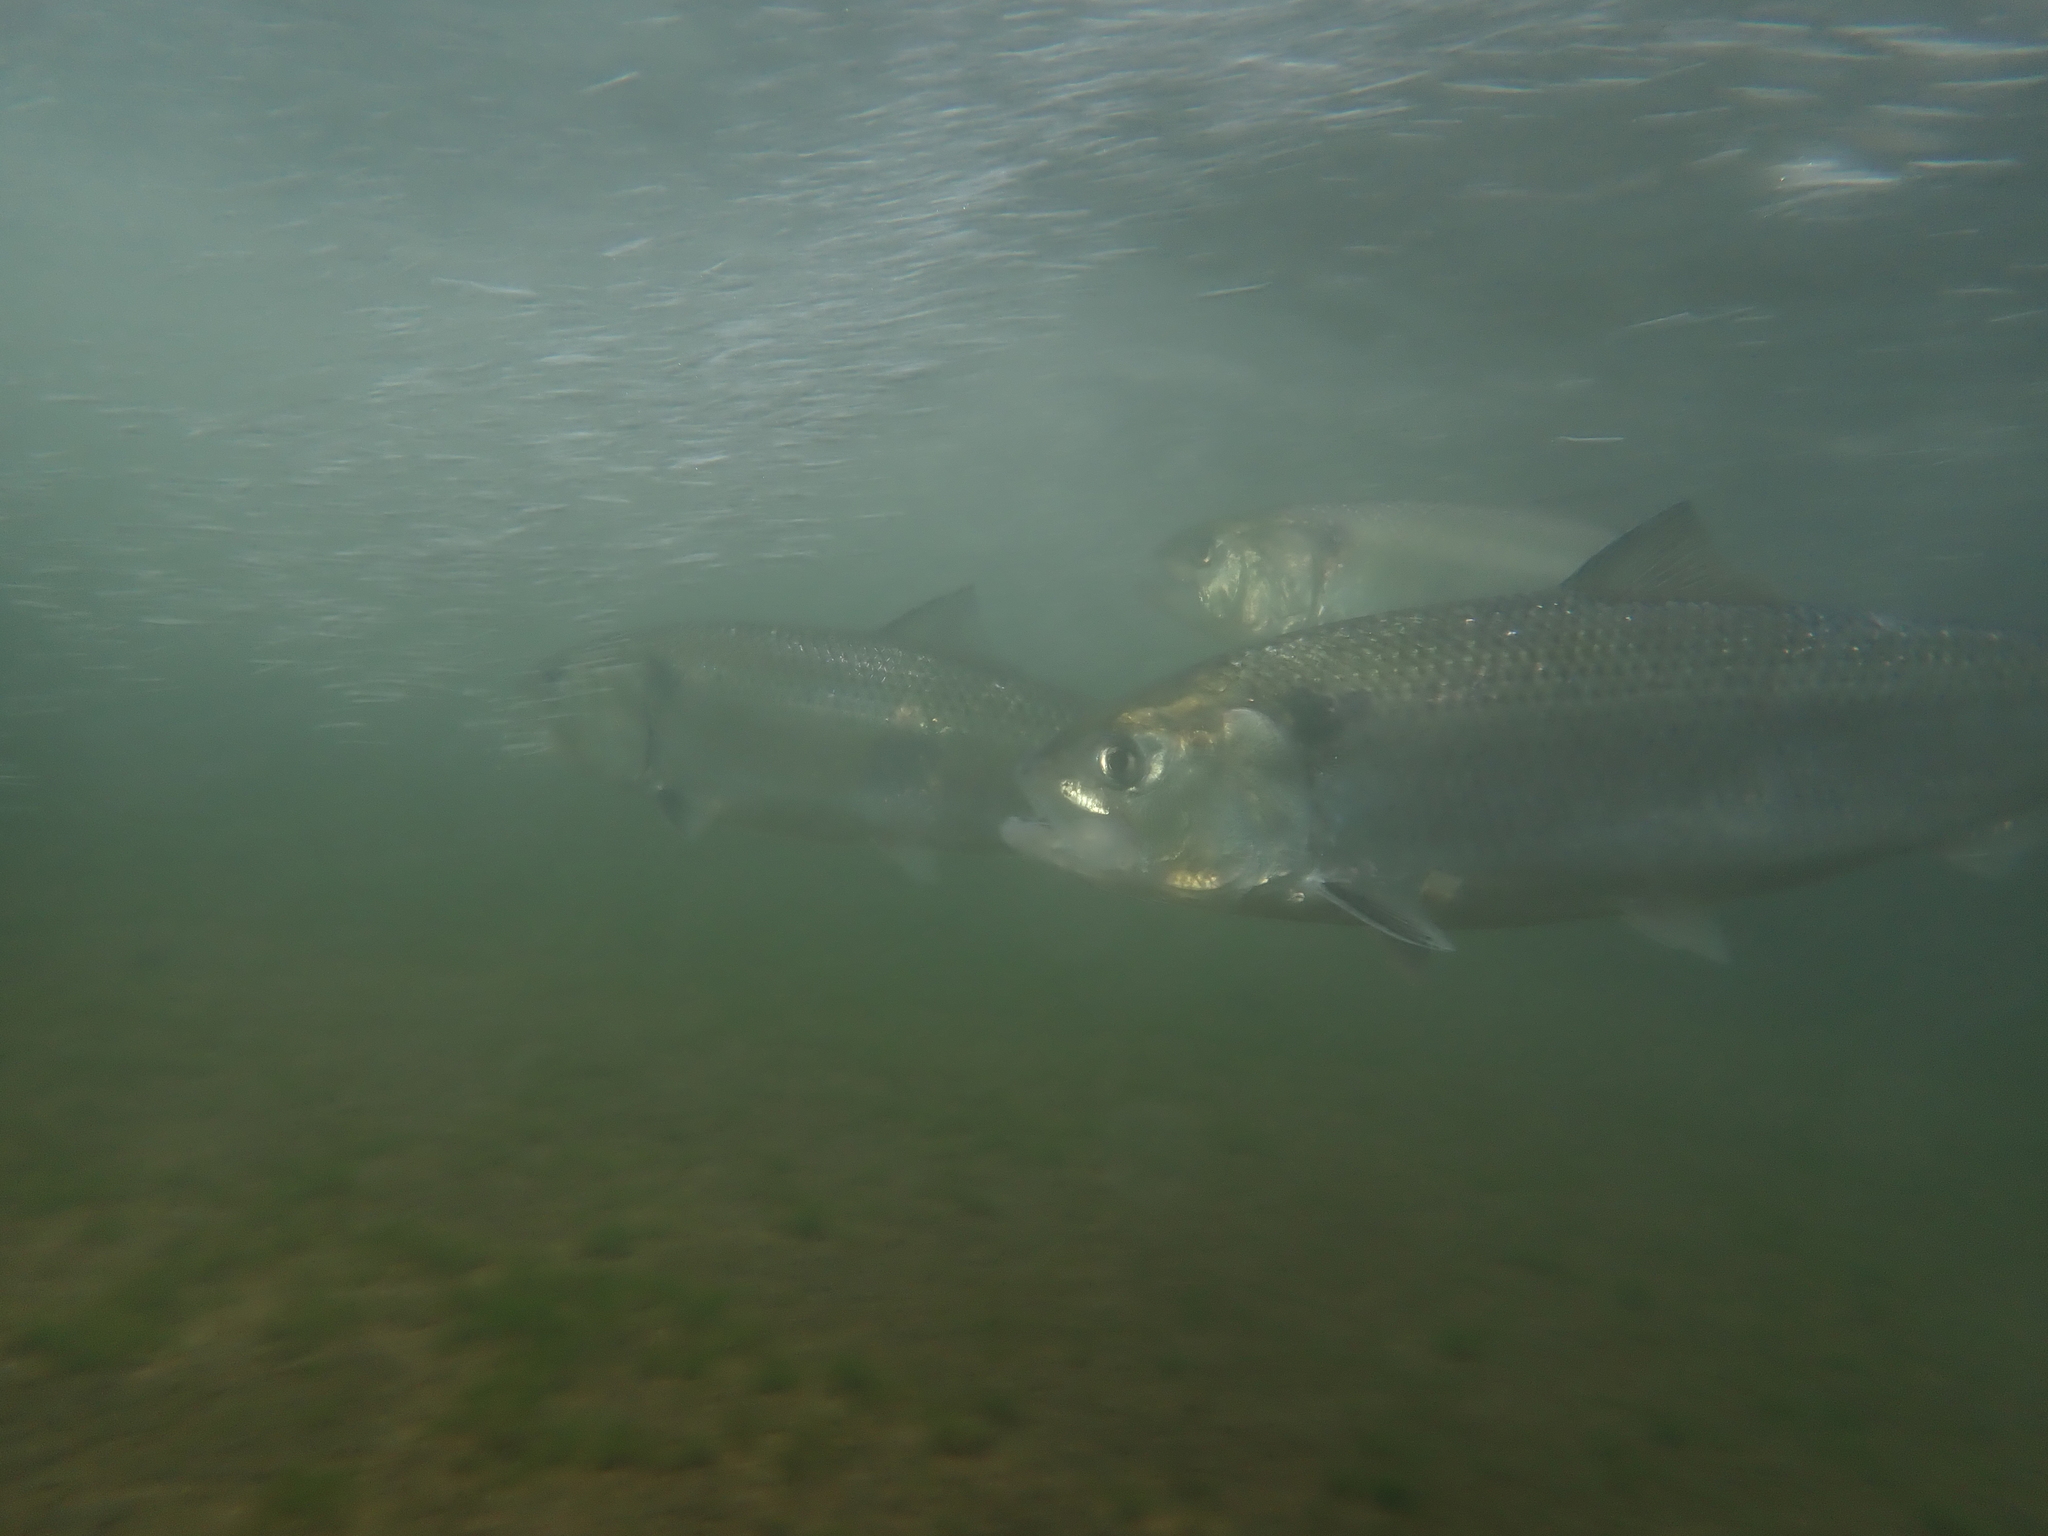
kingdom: Animalia
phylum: Chordata
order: Clupeiformes
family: Clupeidae
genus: Alosa
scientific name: Alosa agone
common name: Agone
